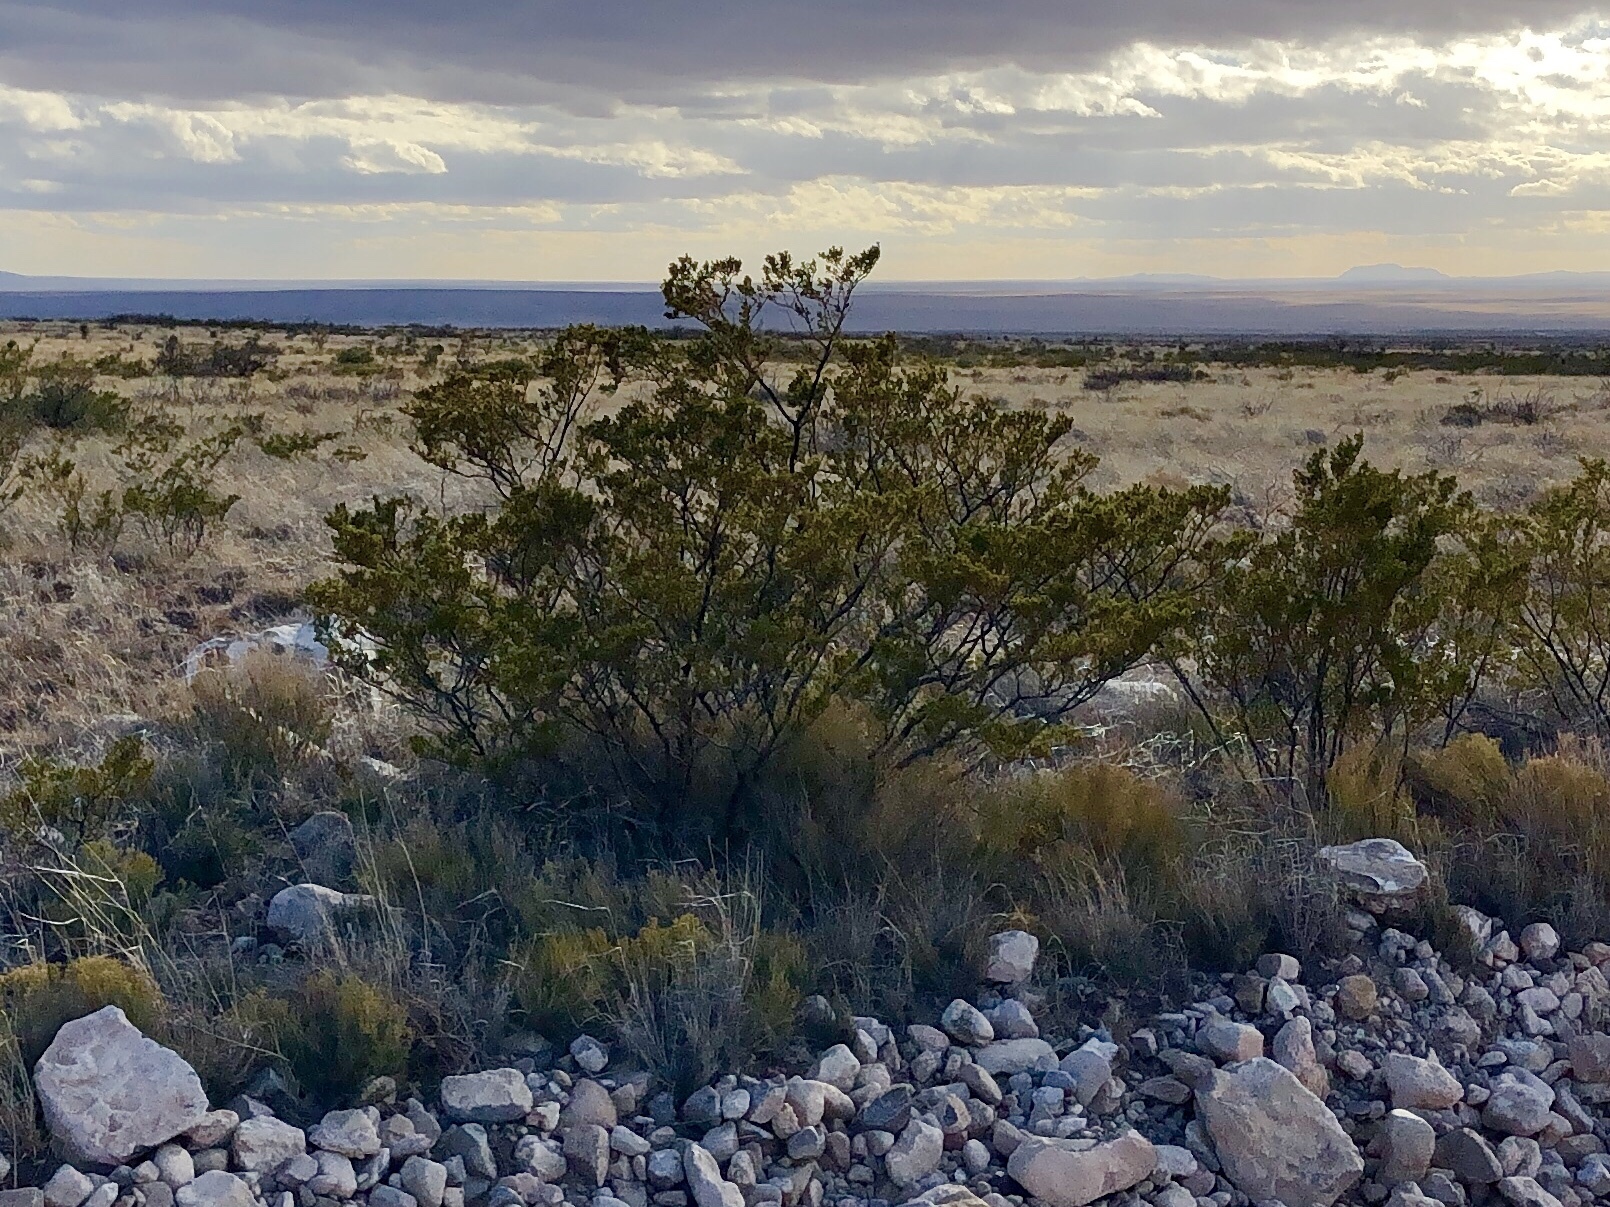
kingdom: Plantae
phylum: Tracheophyta
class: Magnoliopsida
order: Zygophyllales
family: Zygophyllaceae
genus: Larrea
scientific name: Larrea tridentata
